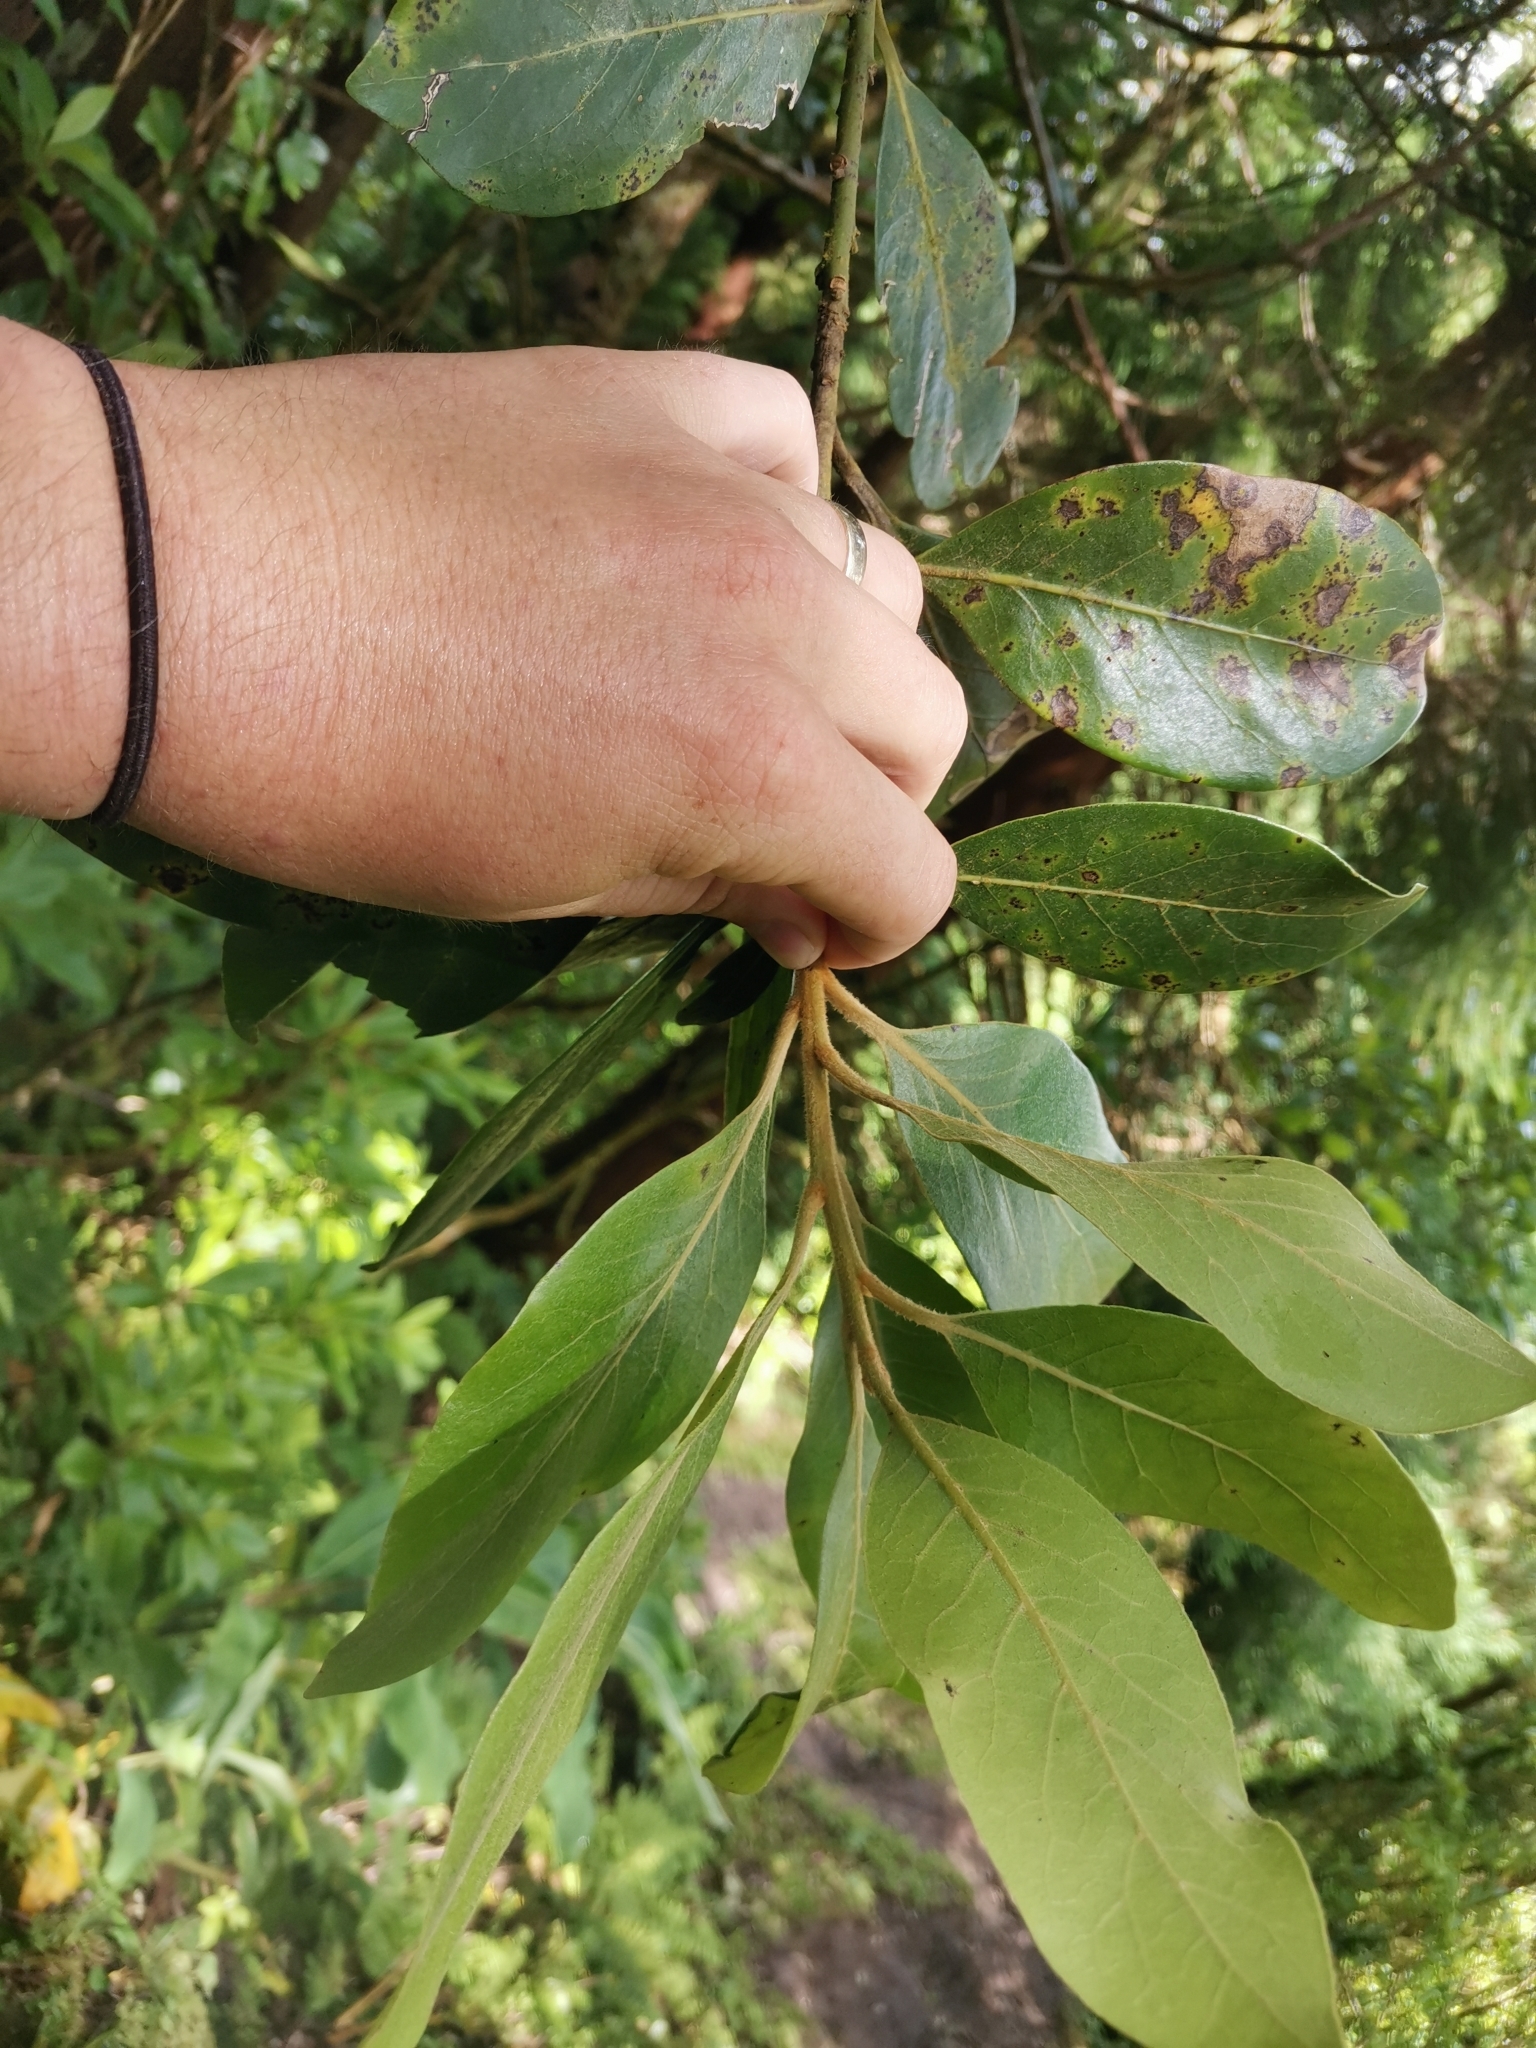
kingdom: Plantae
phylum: Tracheophyta
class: Magnoliopsida
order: Laurales
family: Lauraceae
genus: Laurus
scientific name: Laurus azorica
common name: Macaronesian laurel
